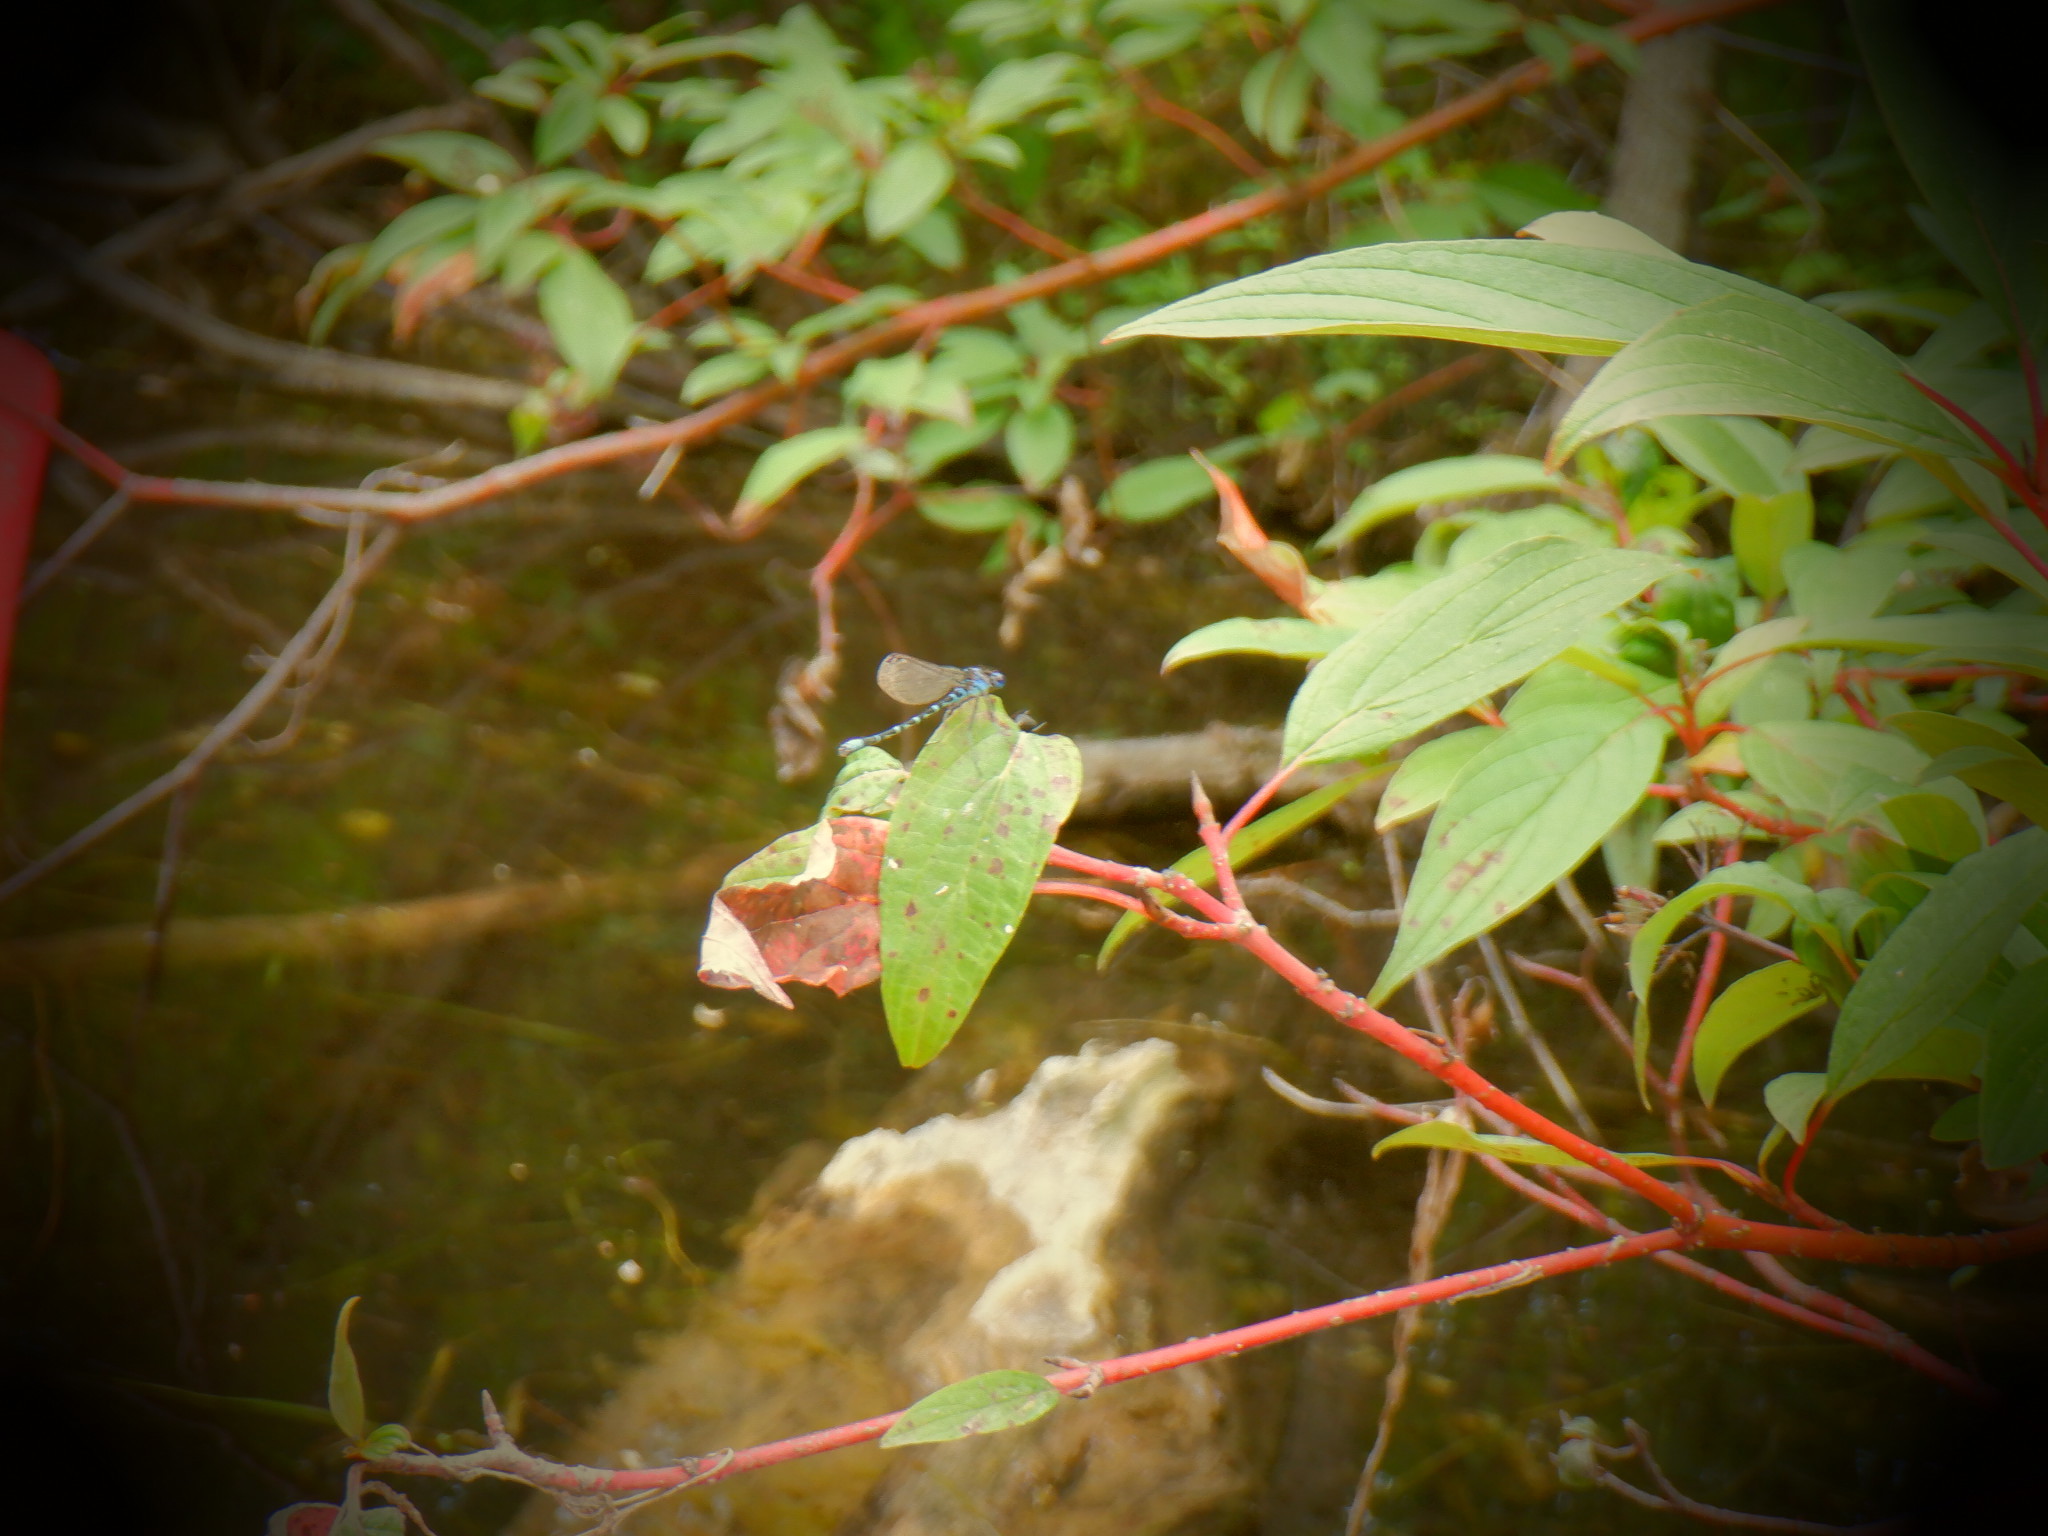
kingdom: Animalia
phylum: Arthropoda
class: Insecta
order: Odonata
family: Coenagrionidae
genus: Enallagma
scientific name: Enallagma carunculatum
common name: Tule bluet
